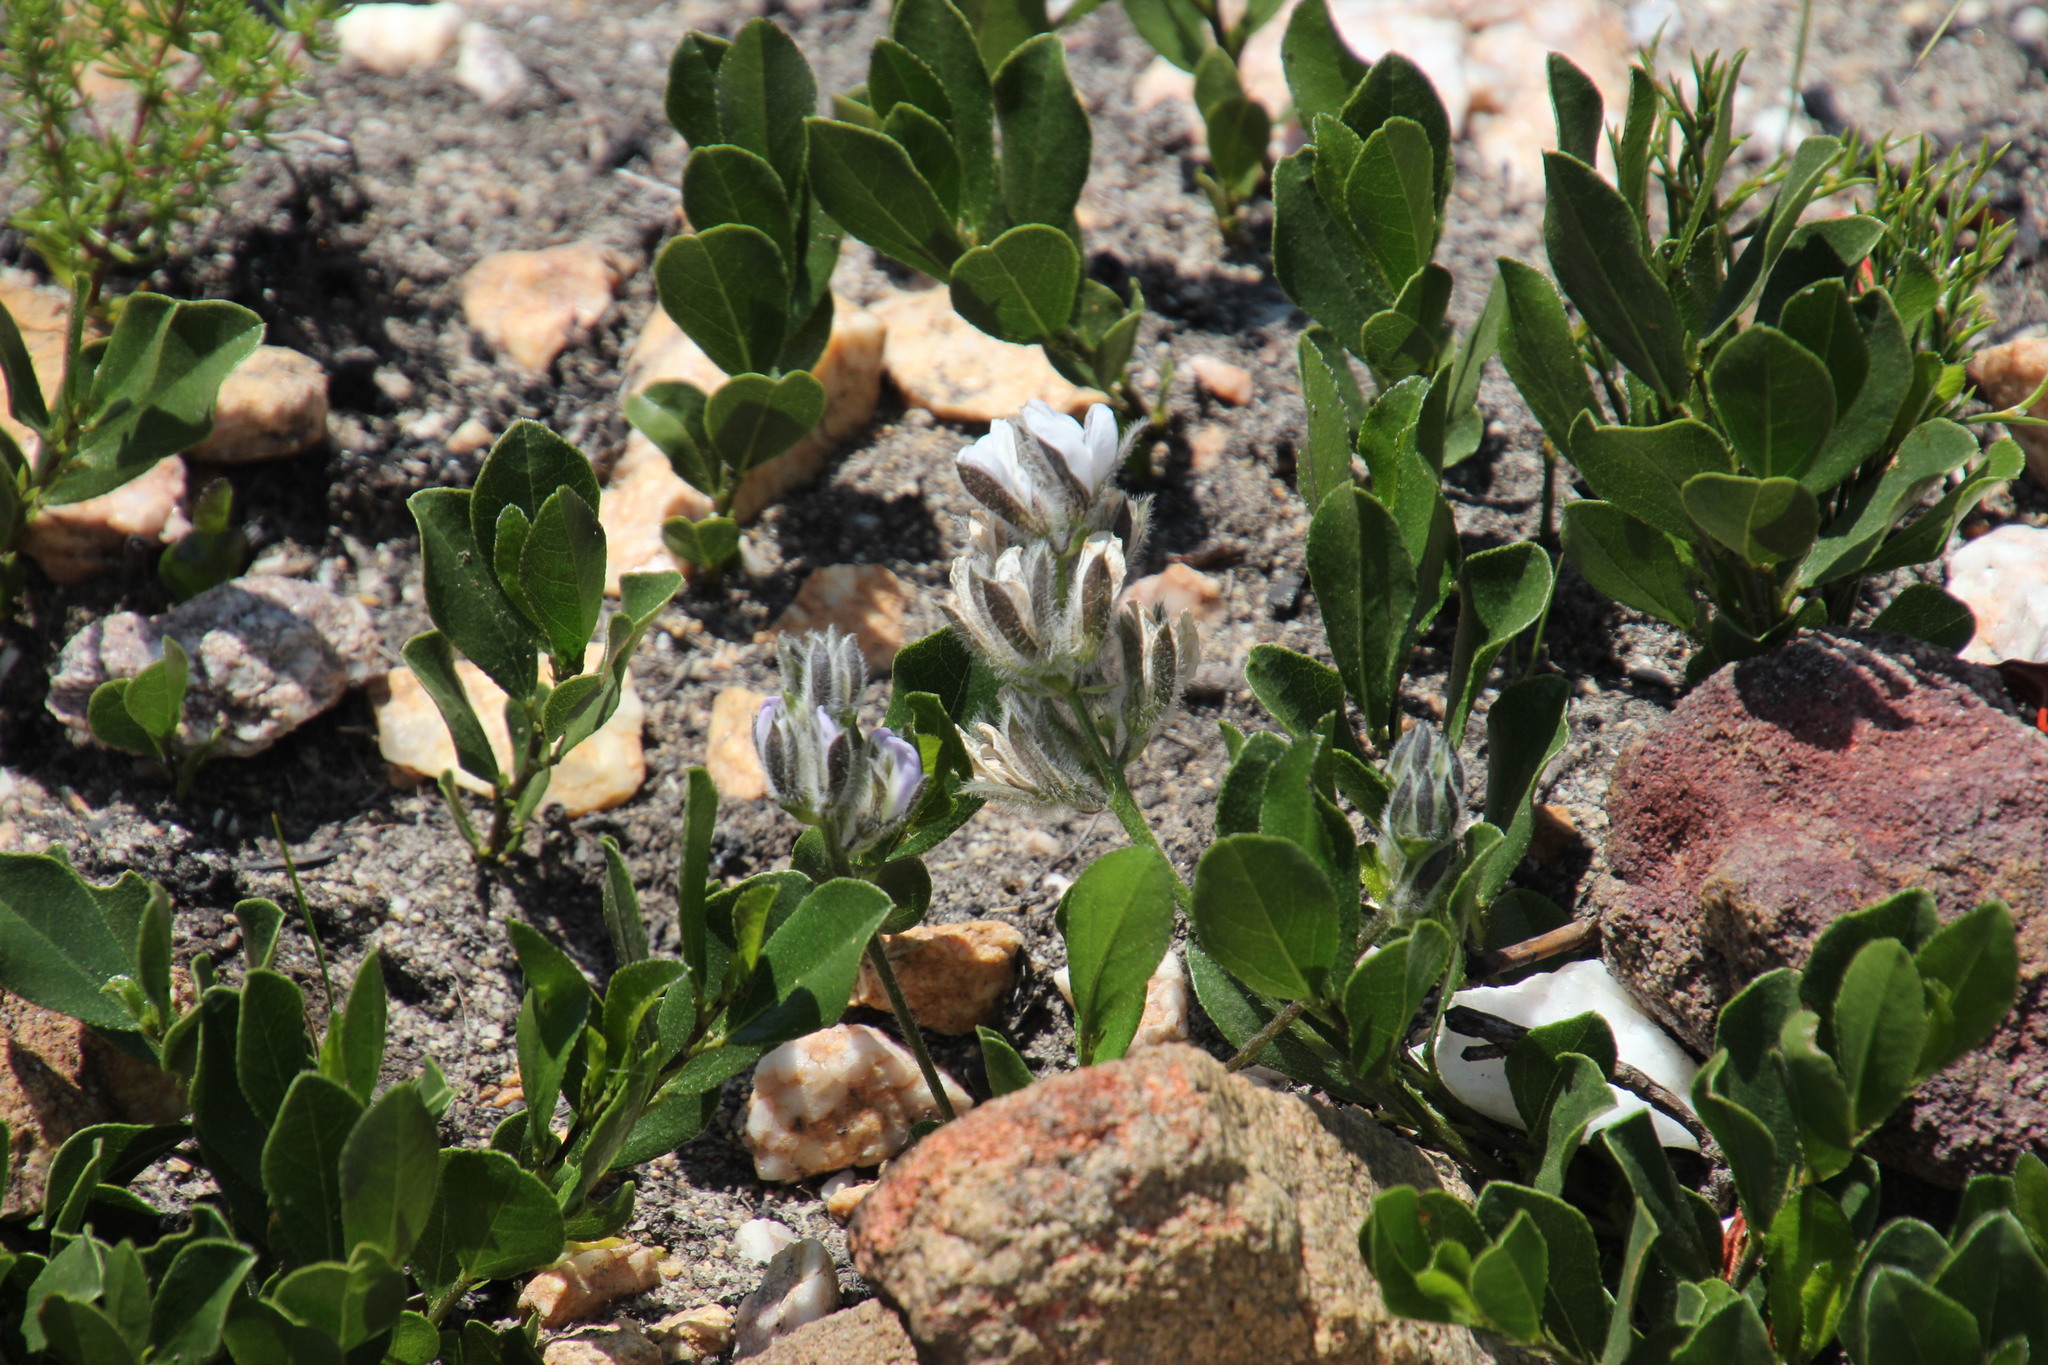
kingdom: Plantae
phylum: Tracheophyta
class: Magnoliopsida
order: Fabales
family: Fabaceae
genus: Psoralea
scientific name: Psoralea rotundifolia
